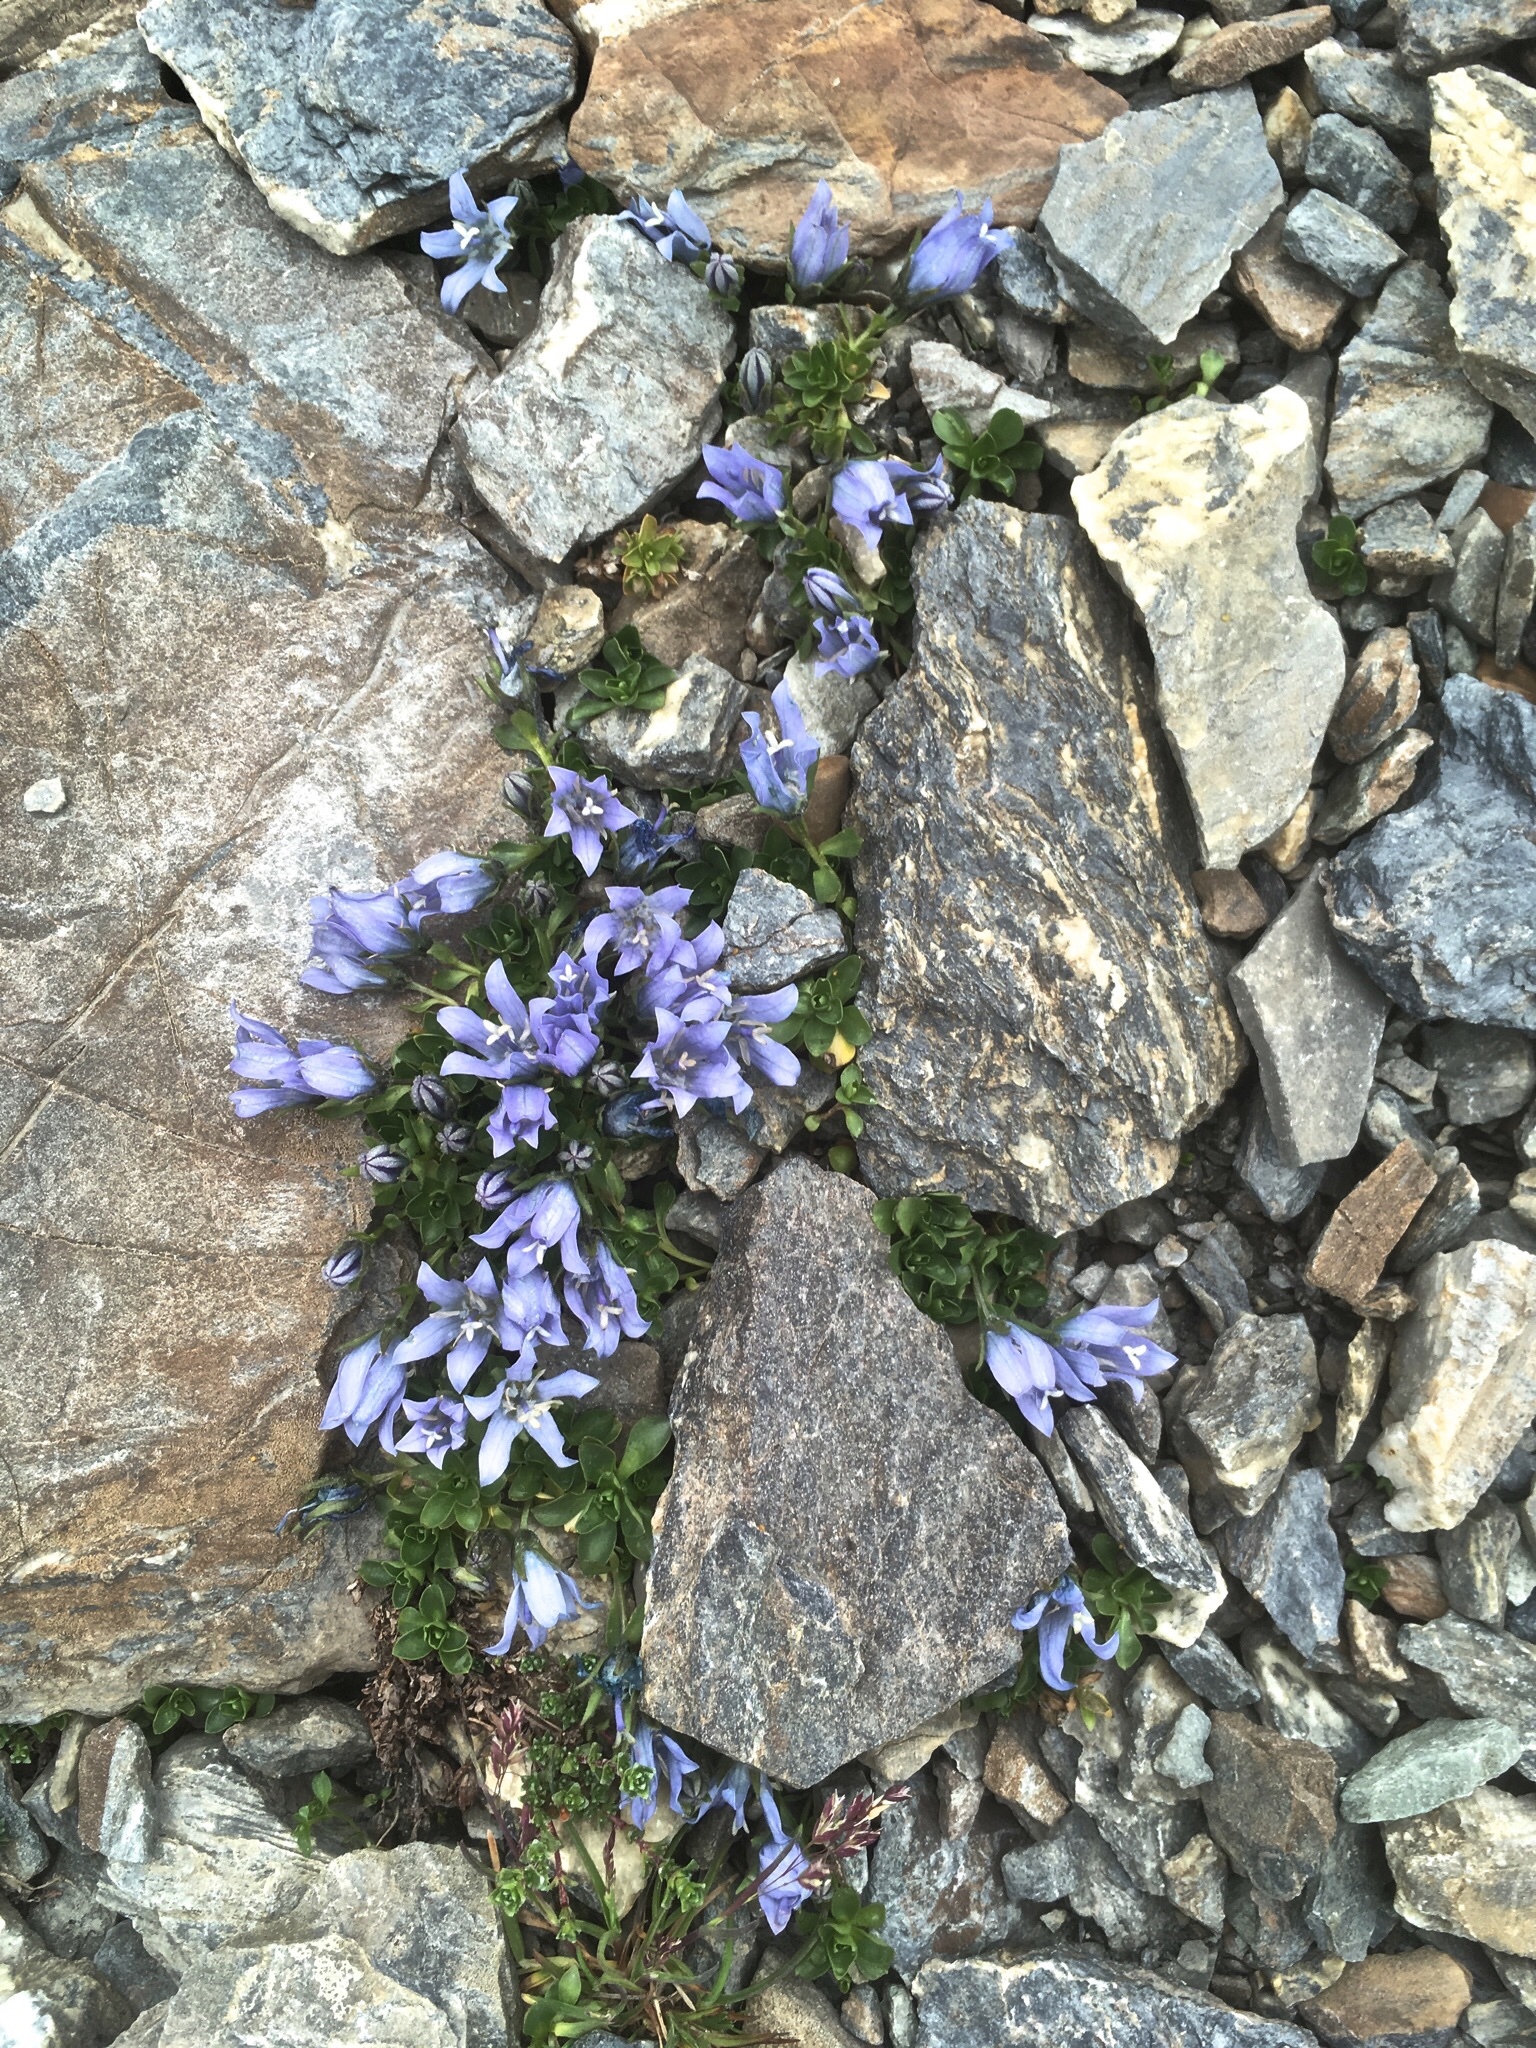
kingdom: Plantae
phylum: Tracheophyta
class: Magnoliopsida
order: Asterales
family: Campanulaceae
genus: Campanula
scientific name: Campanula cenisia
